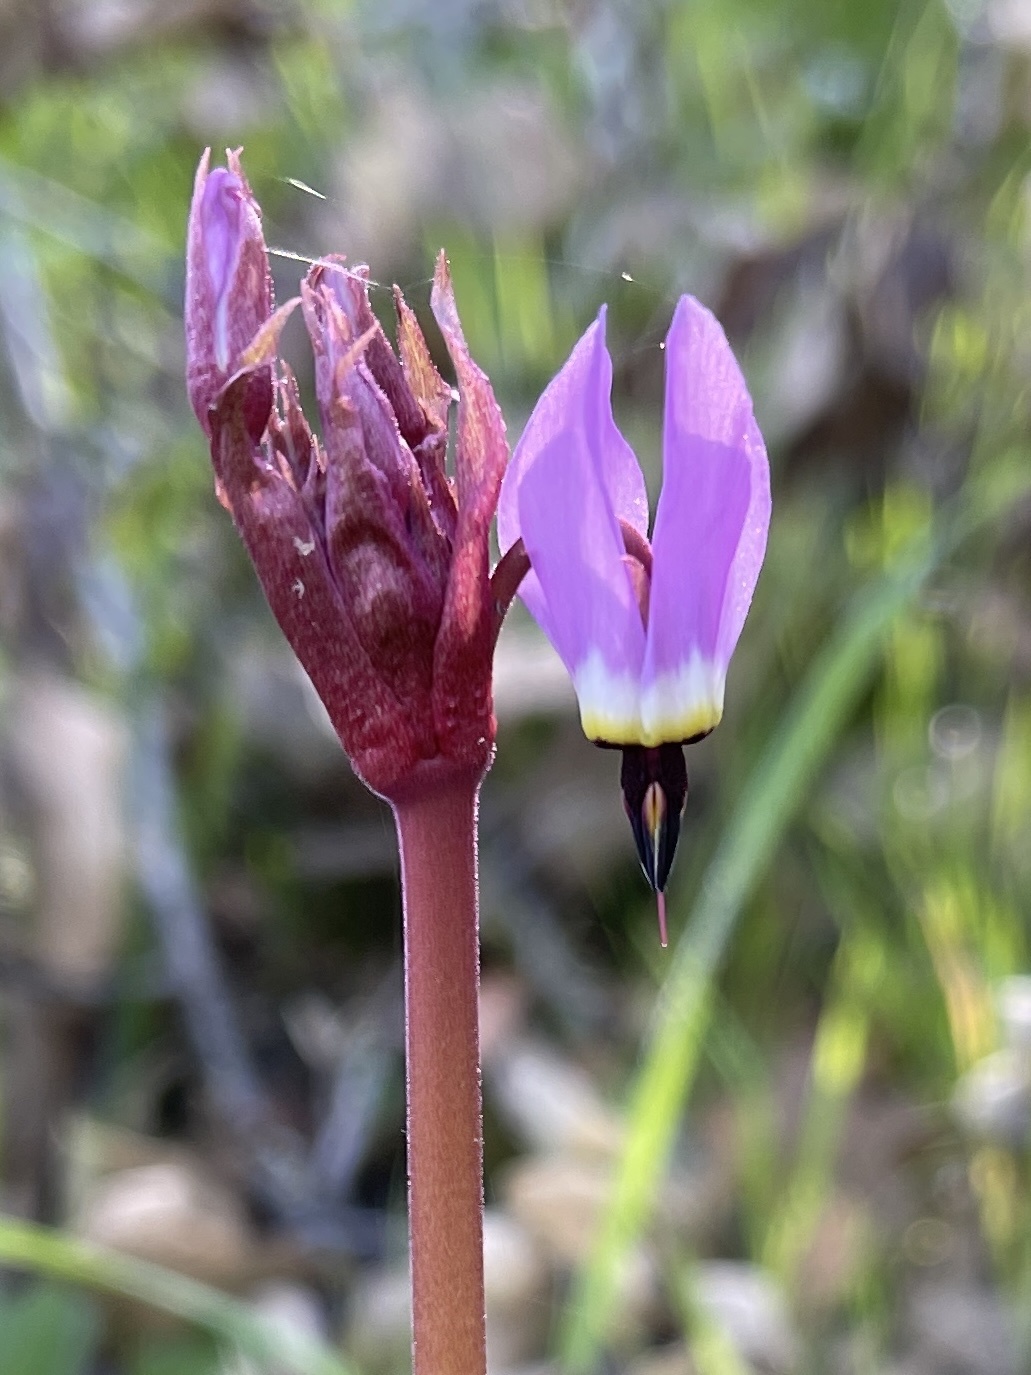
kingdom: Plantae
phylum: Tracheophyta
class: Magnoliopsida
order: Ericales
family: Primulaceae
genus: Dodecatheon
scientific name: Dodecatheon hendersonii
